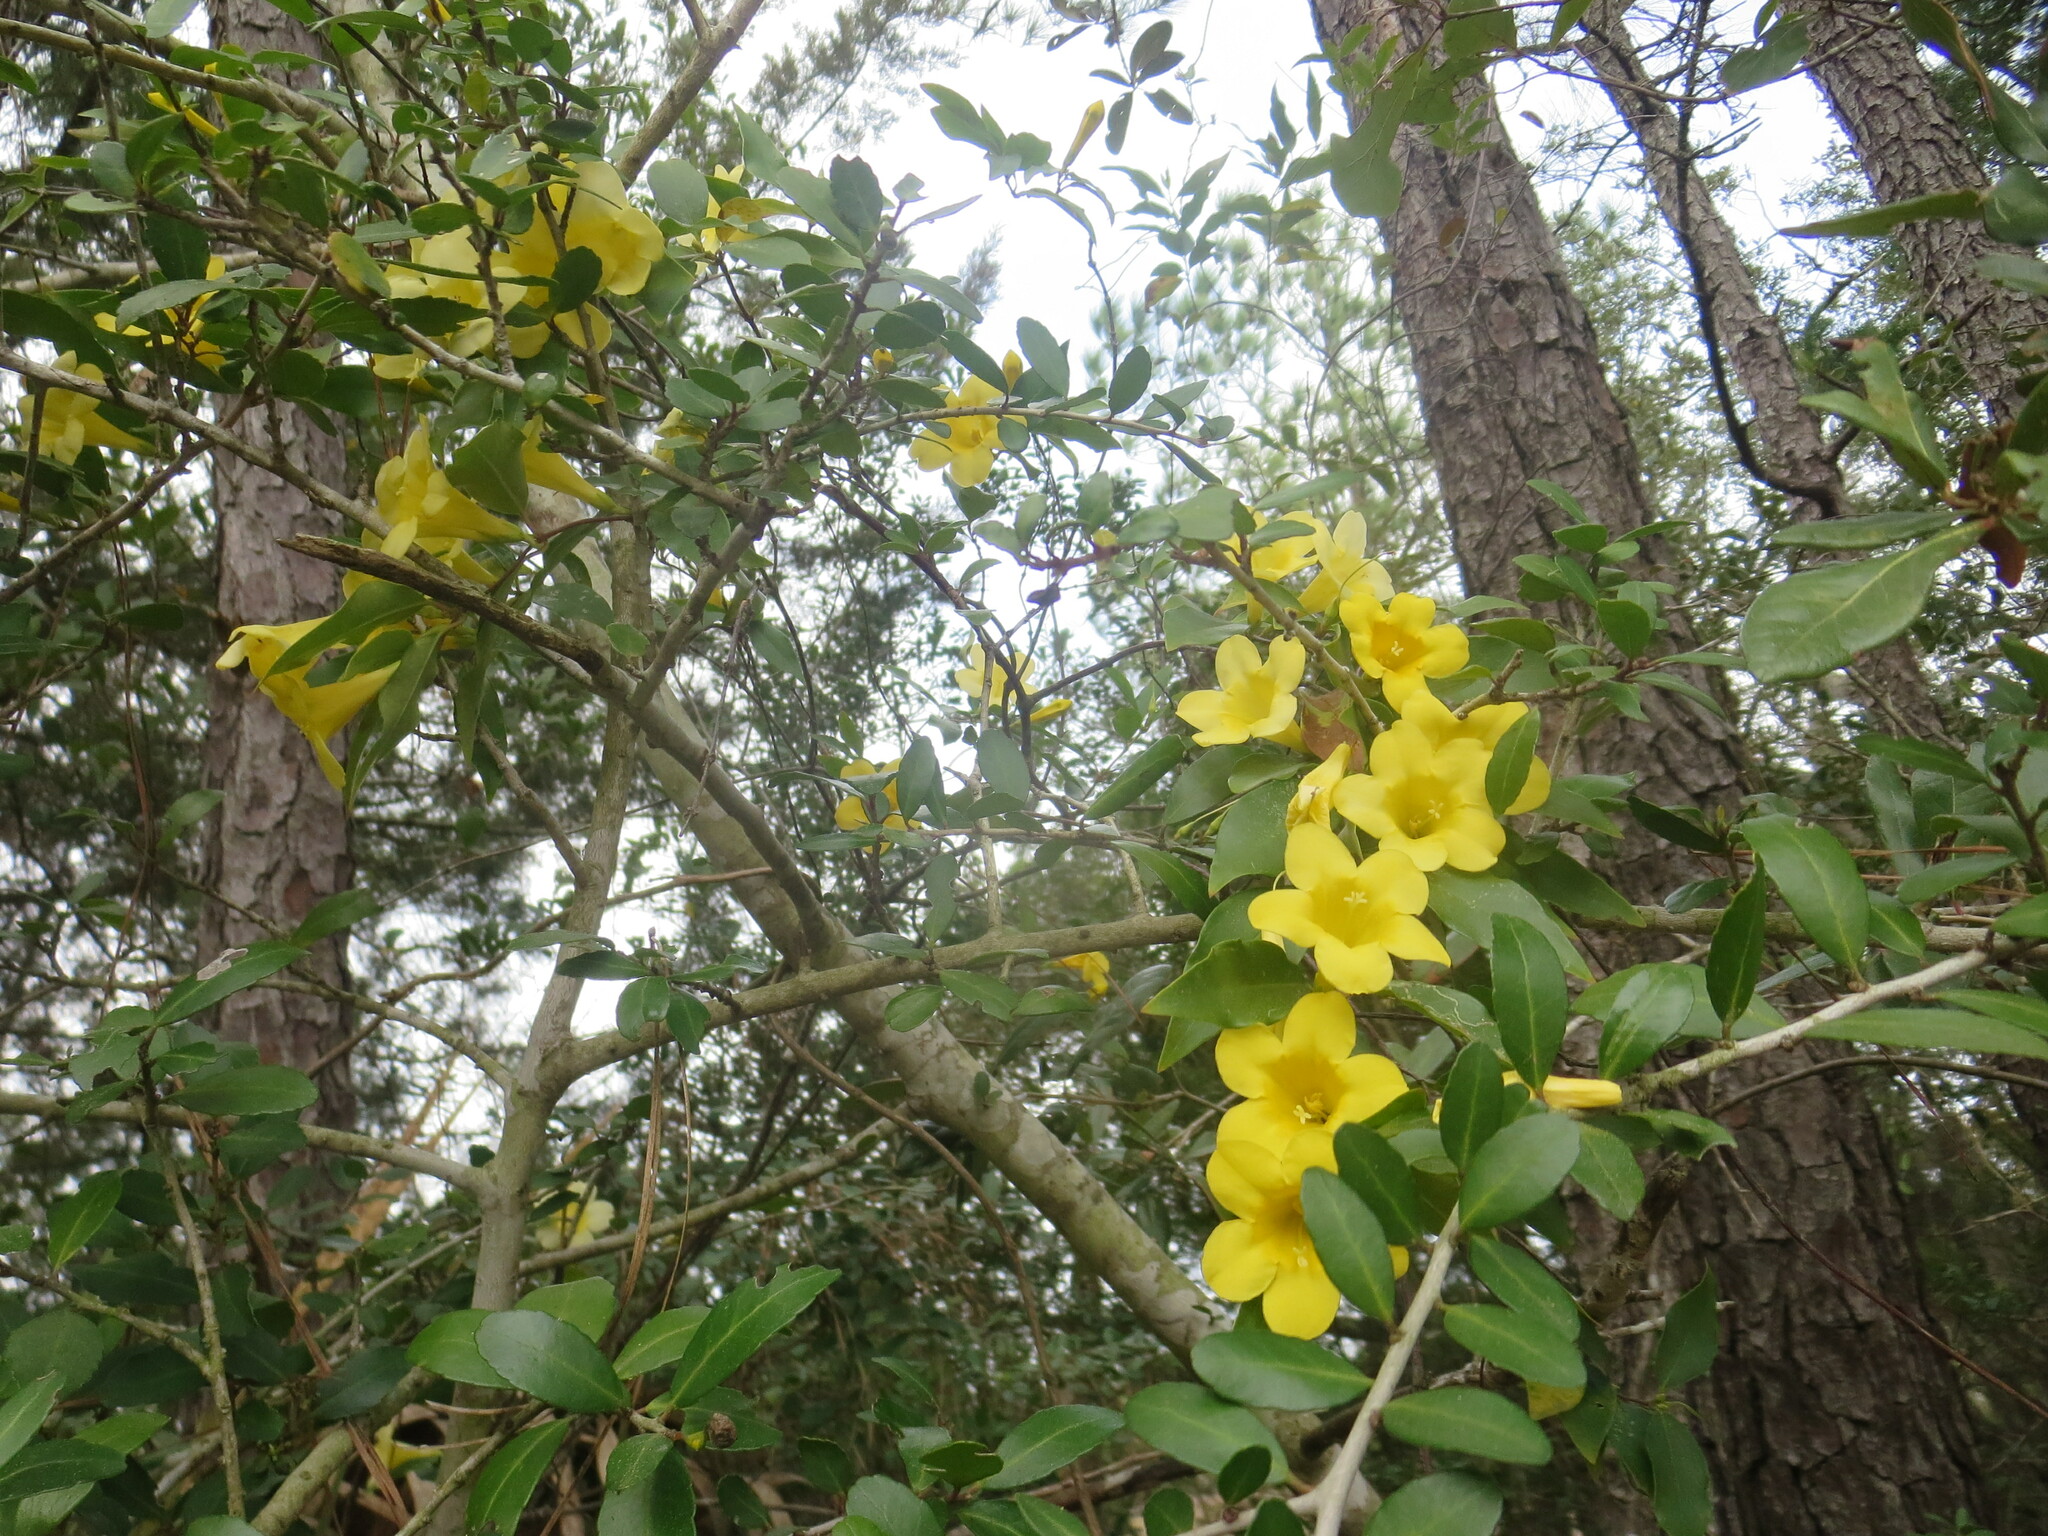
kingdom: Plantae
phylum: Tracheophyta
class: Magnoliopsida
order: Gentianales
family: Gelsemiaceae
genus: Gelsemium
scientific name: Gelsemium sempervirens
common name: Carolina-jasmine
